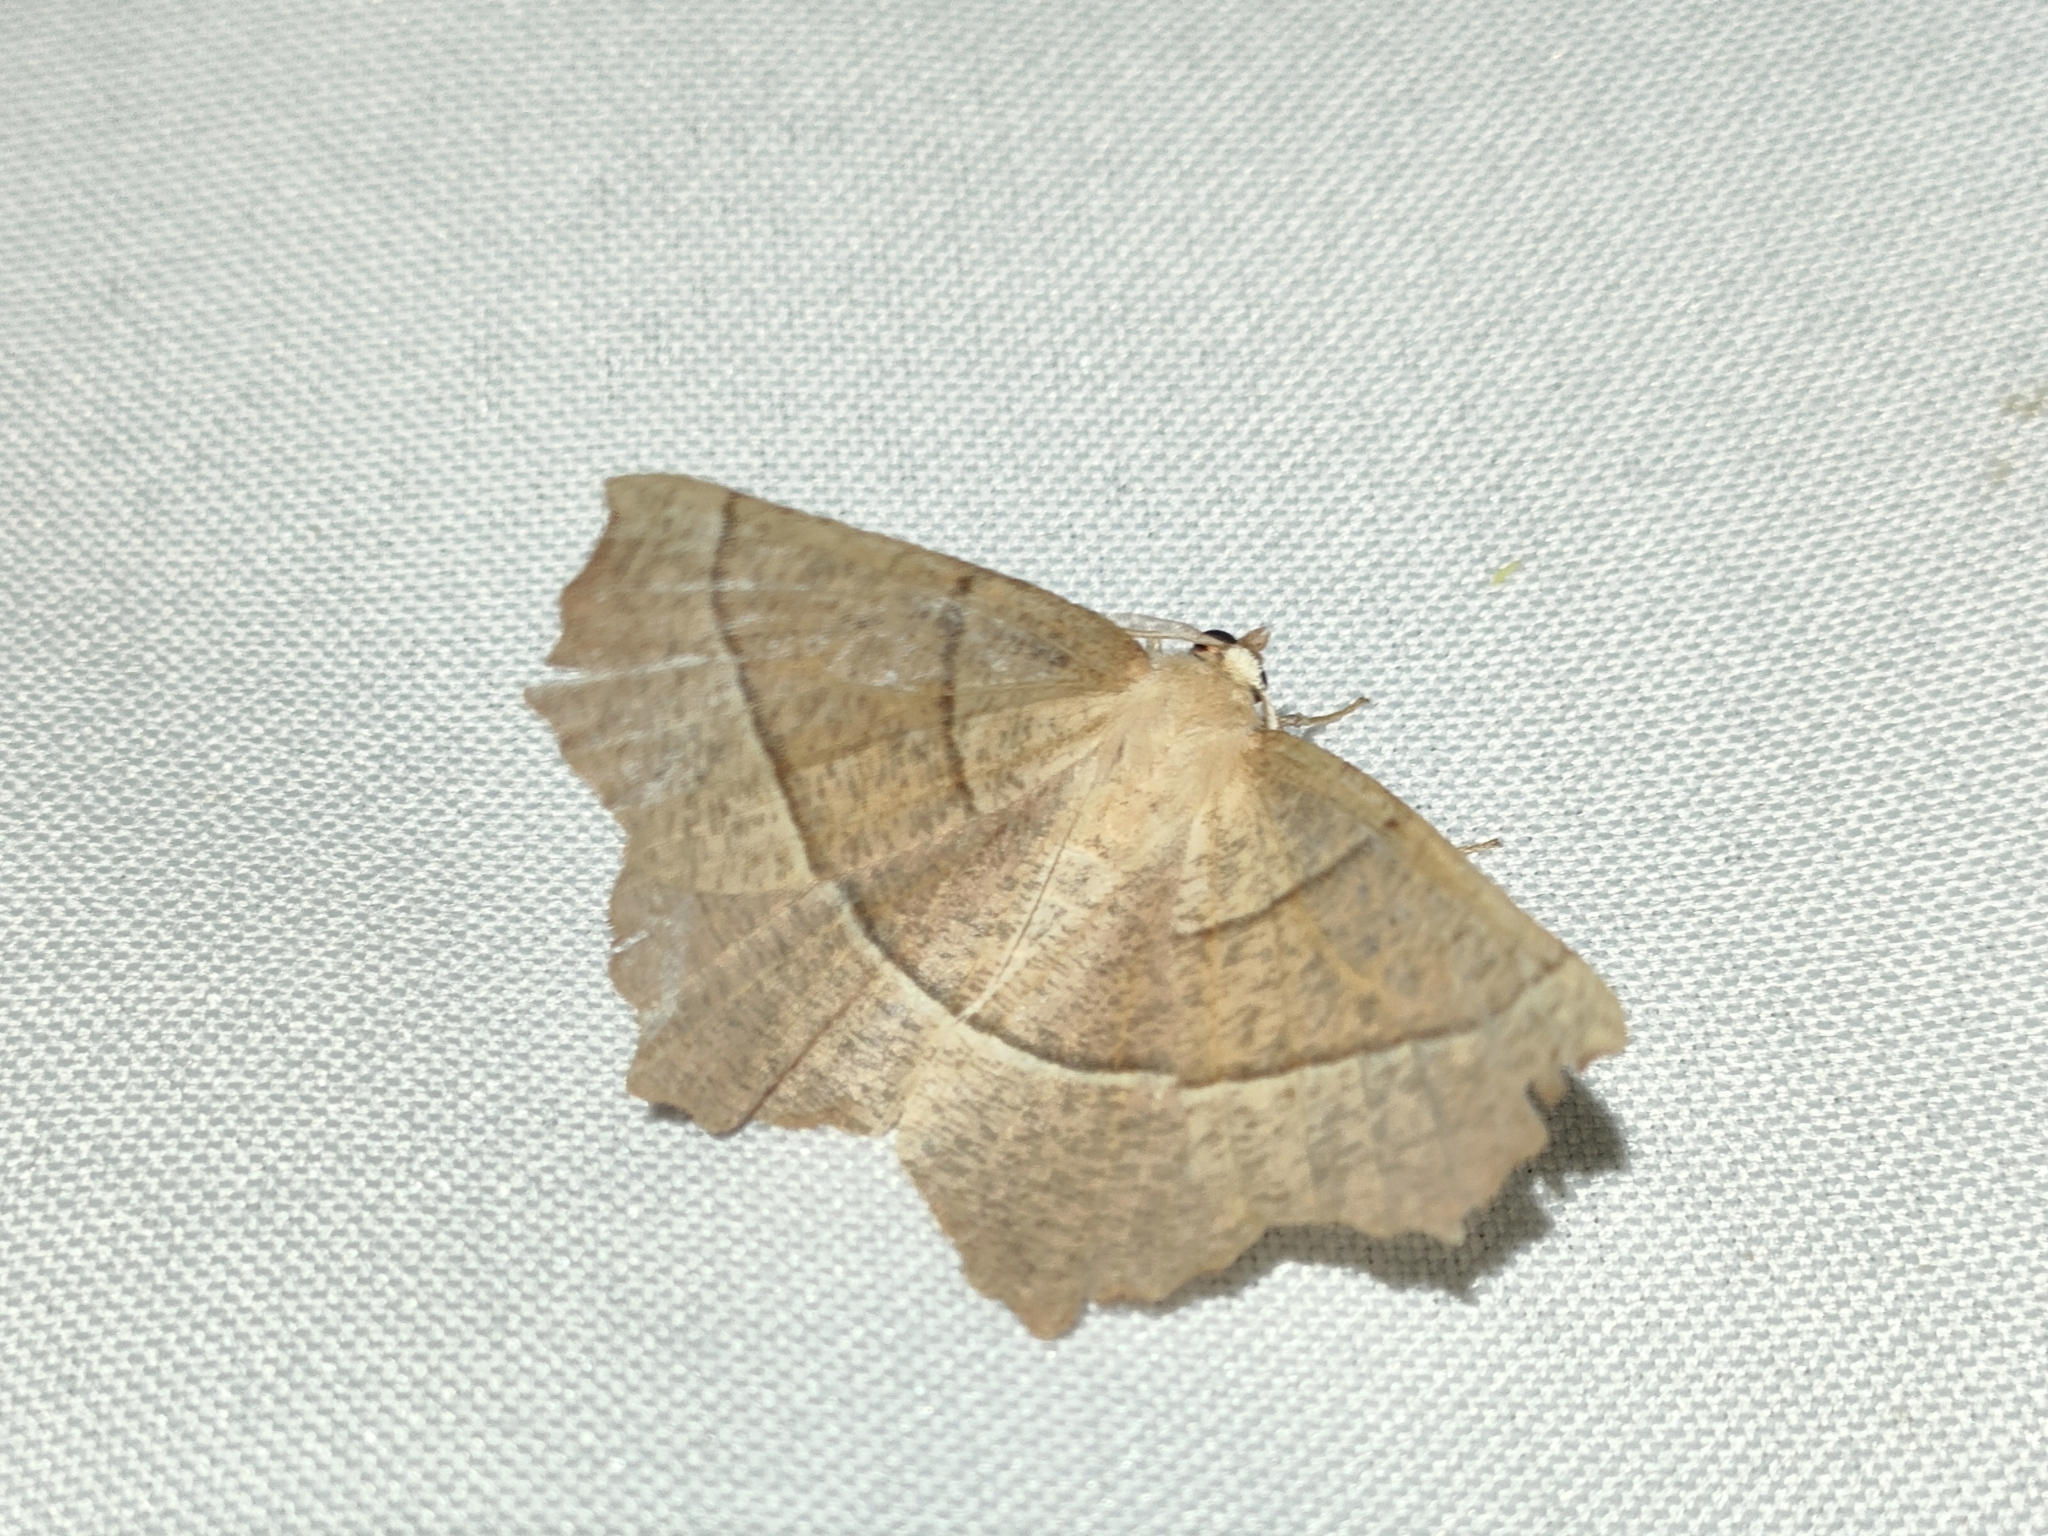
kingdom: Animalia
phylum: Arthropoda
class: Insecta
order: Lepidoptera
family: Geometridae
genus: Gerinia
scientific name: Gerinia honoraria
